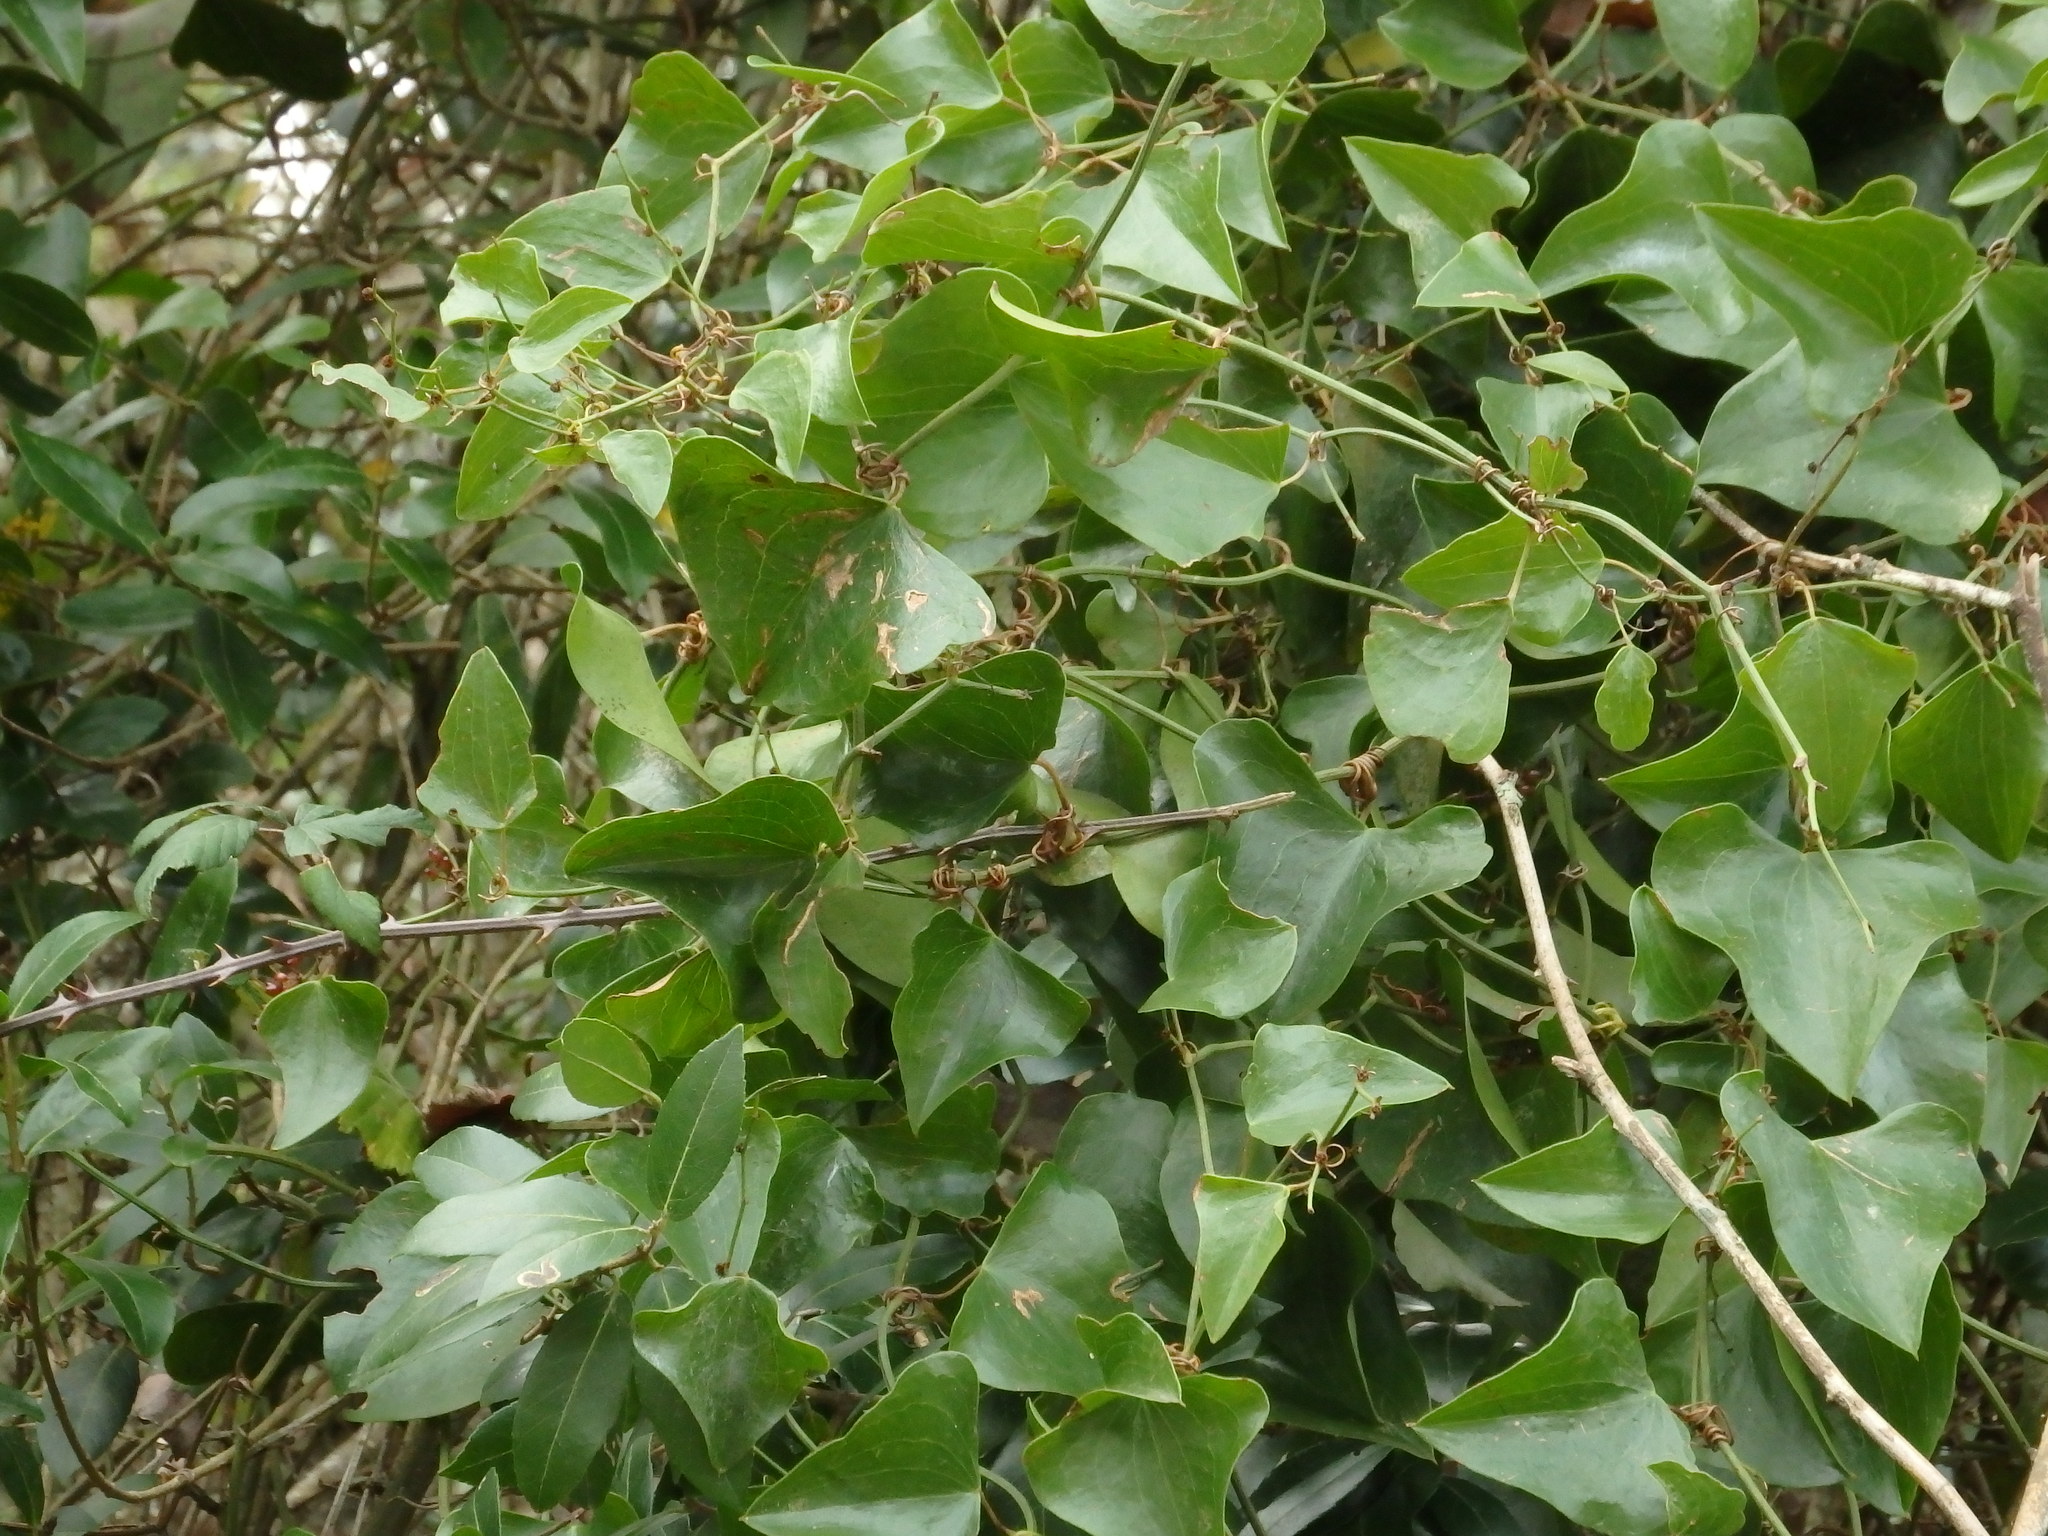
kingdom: Plantae
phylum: Tracheophyta
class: Liliopsida
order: Liliales
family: Smilacaceae
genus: Smilax
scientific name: Smilax aspera
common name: Common smilax
